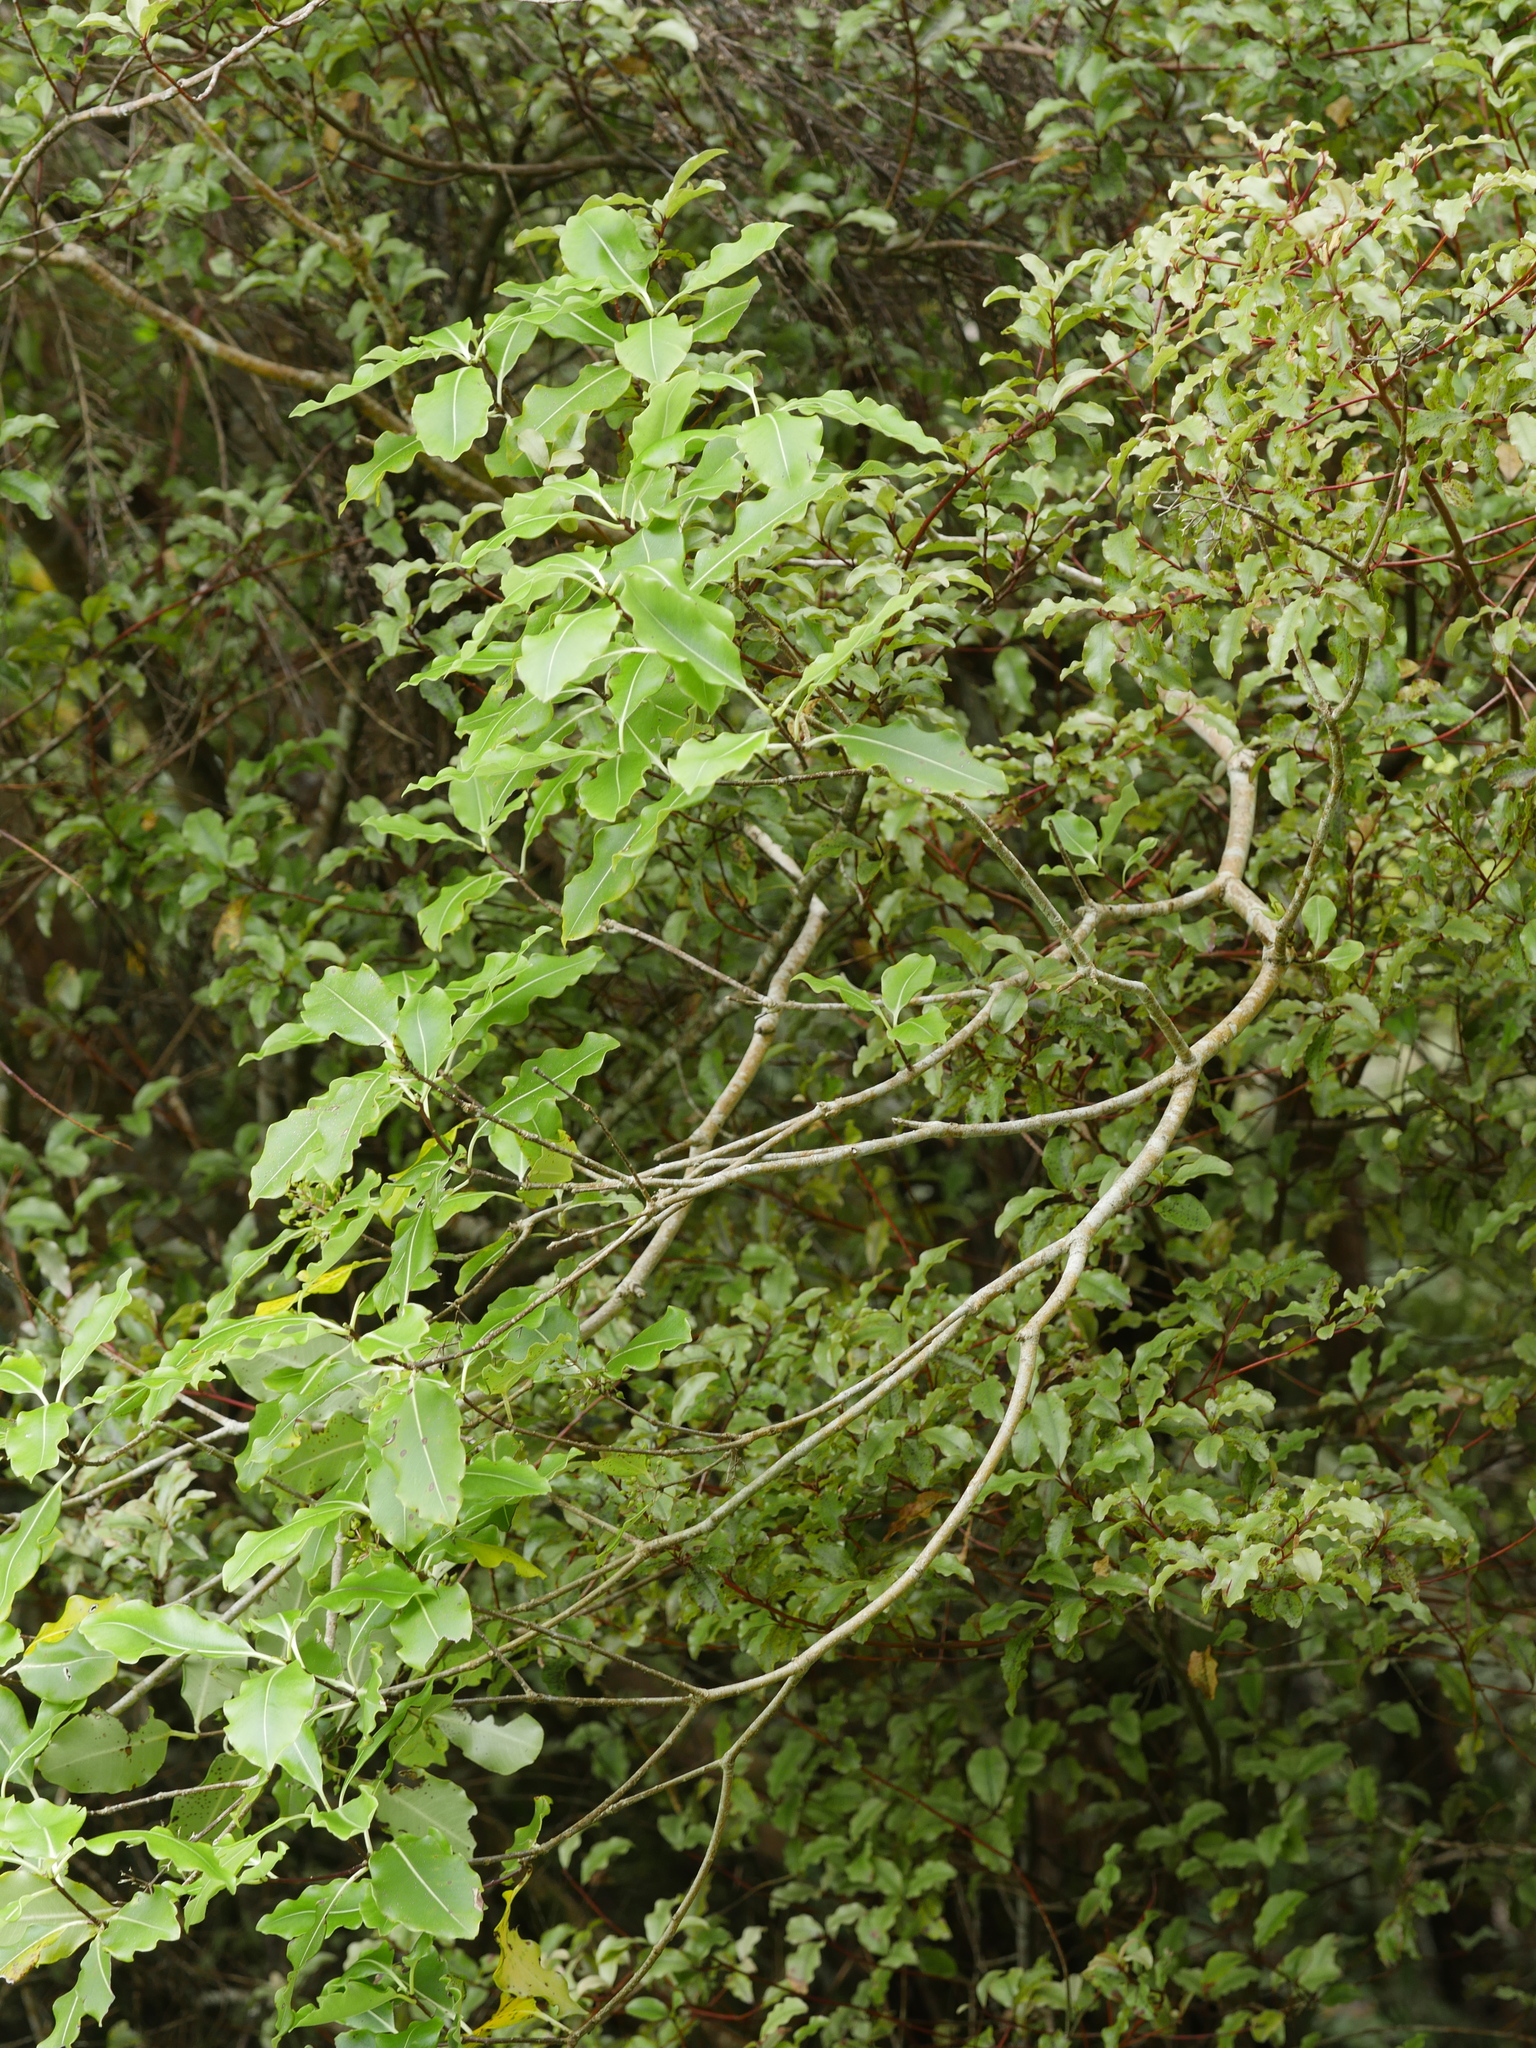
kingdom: Plantae
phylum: Tracheophyta
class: Magnoliopsida
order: Apiales
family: Pittosporaceae
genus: Pittosporum
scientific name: Pittosporum eugenioides
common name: Lemonwood
